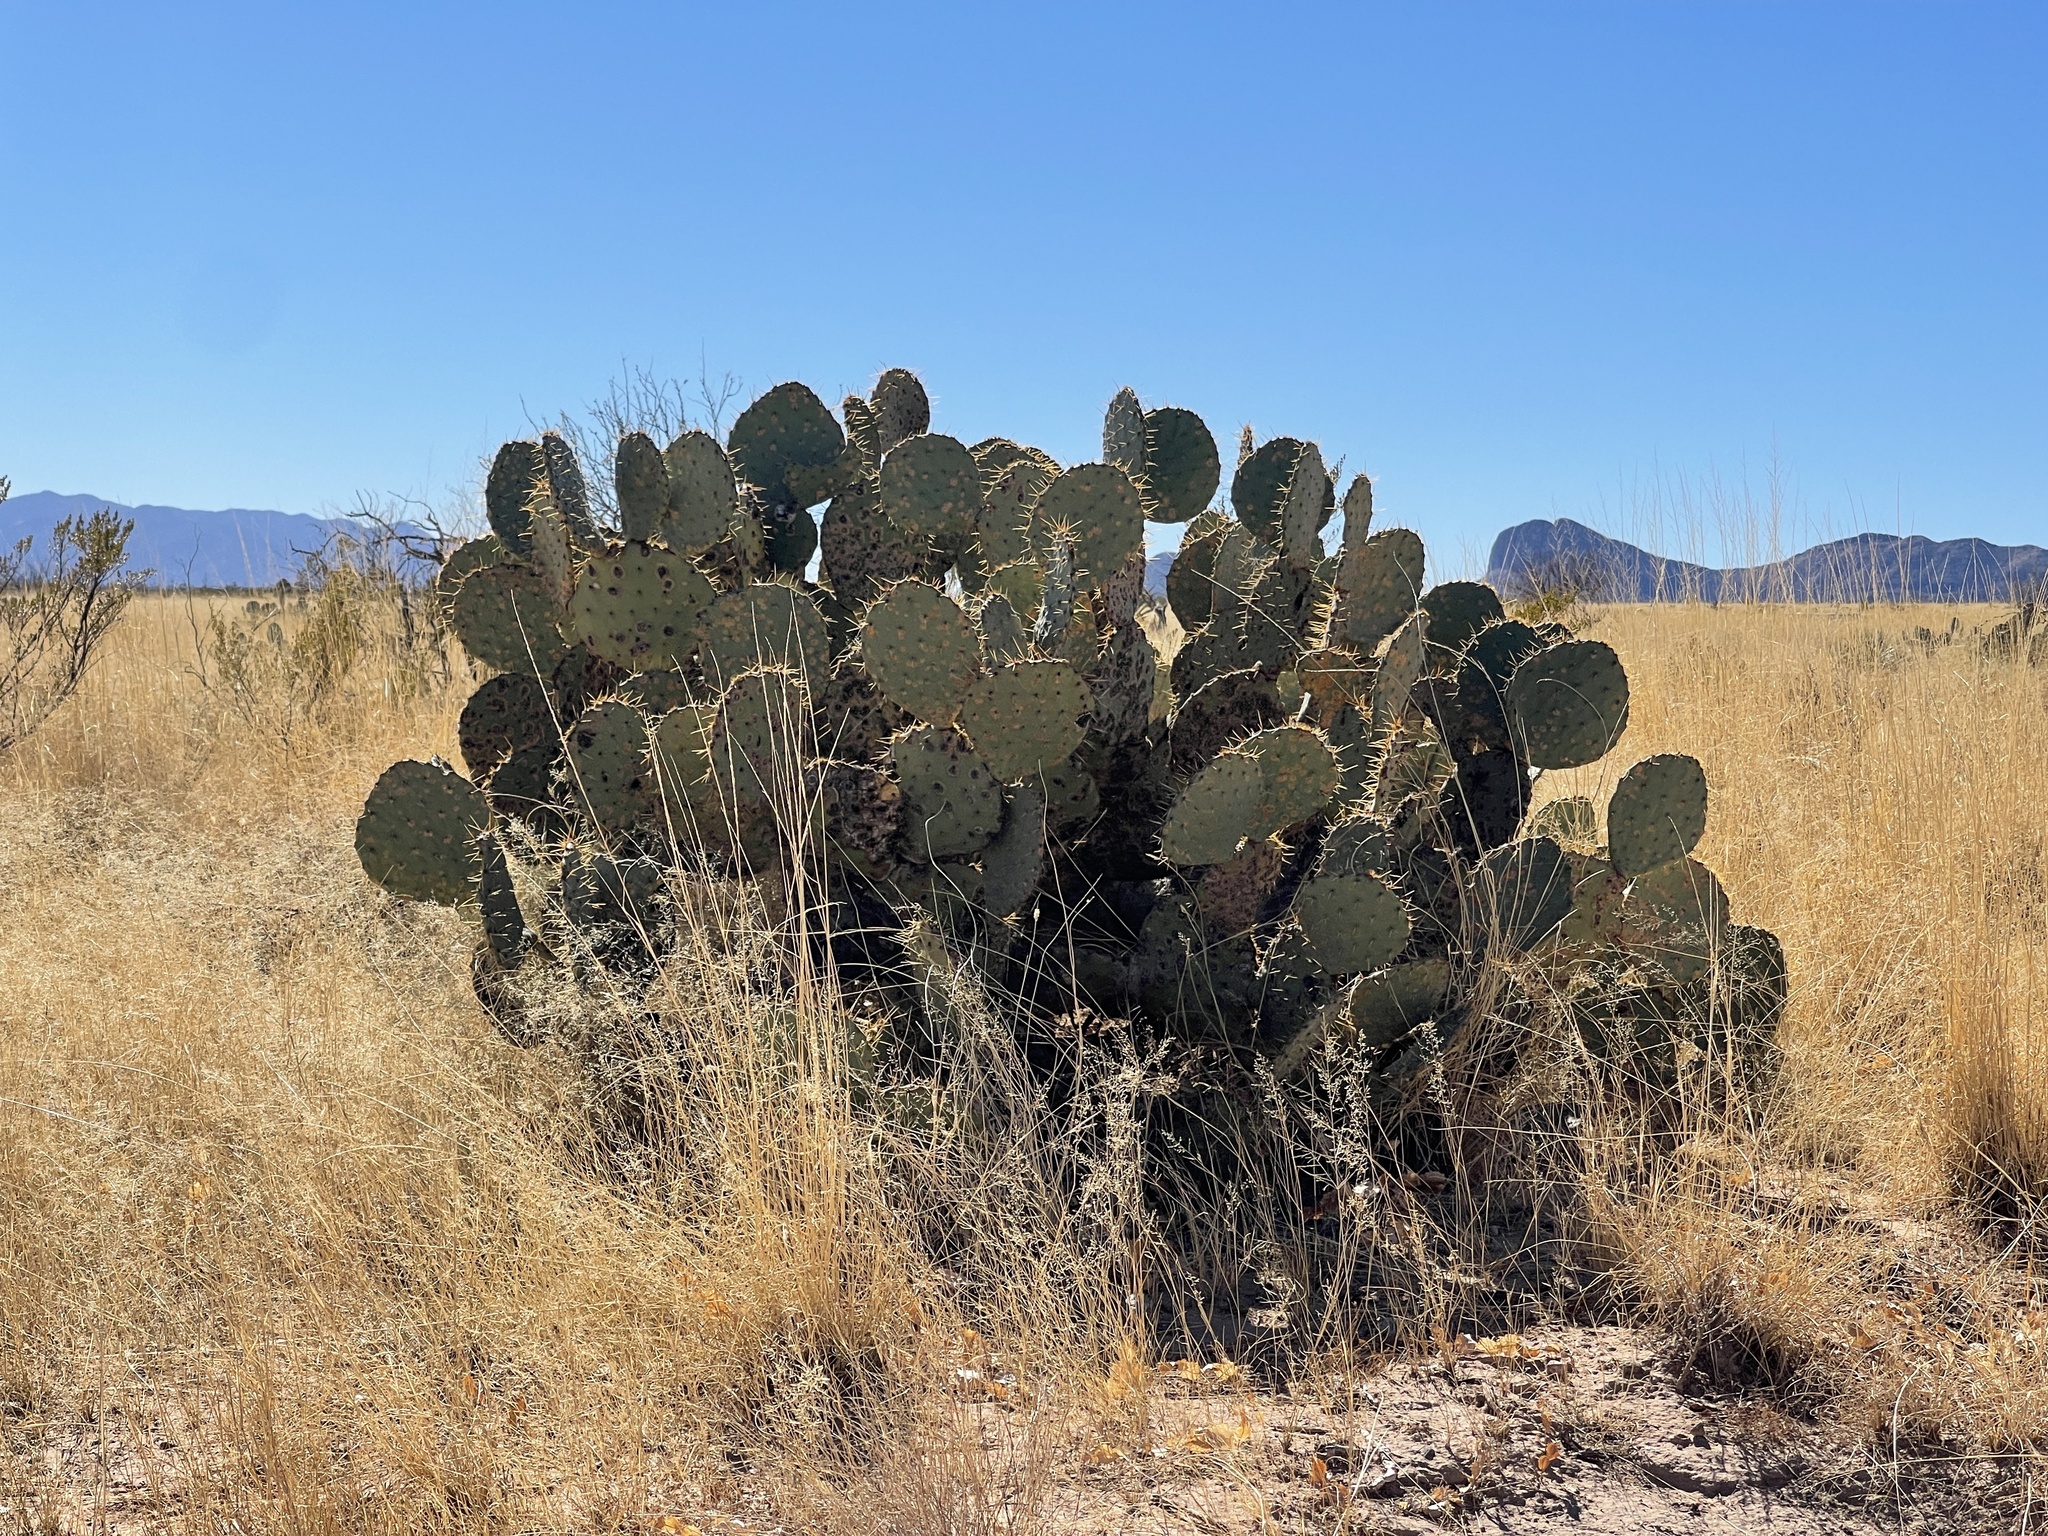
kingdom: Plantae
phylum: Tracheophyta
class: Magnoliopsida
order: Caryophyllales
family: Cactaceae
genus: Opuntia
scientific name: Opuntia engelmannii
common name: Cactus-apple
